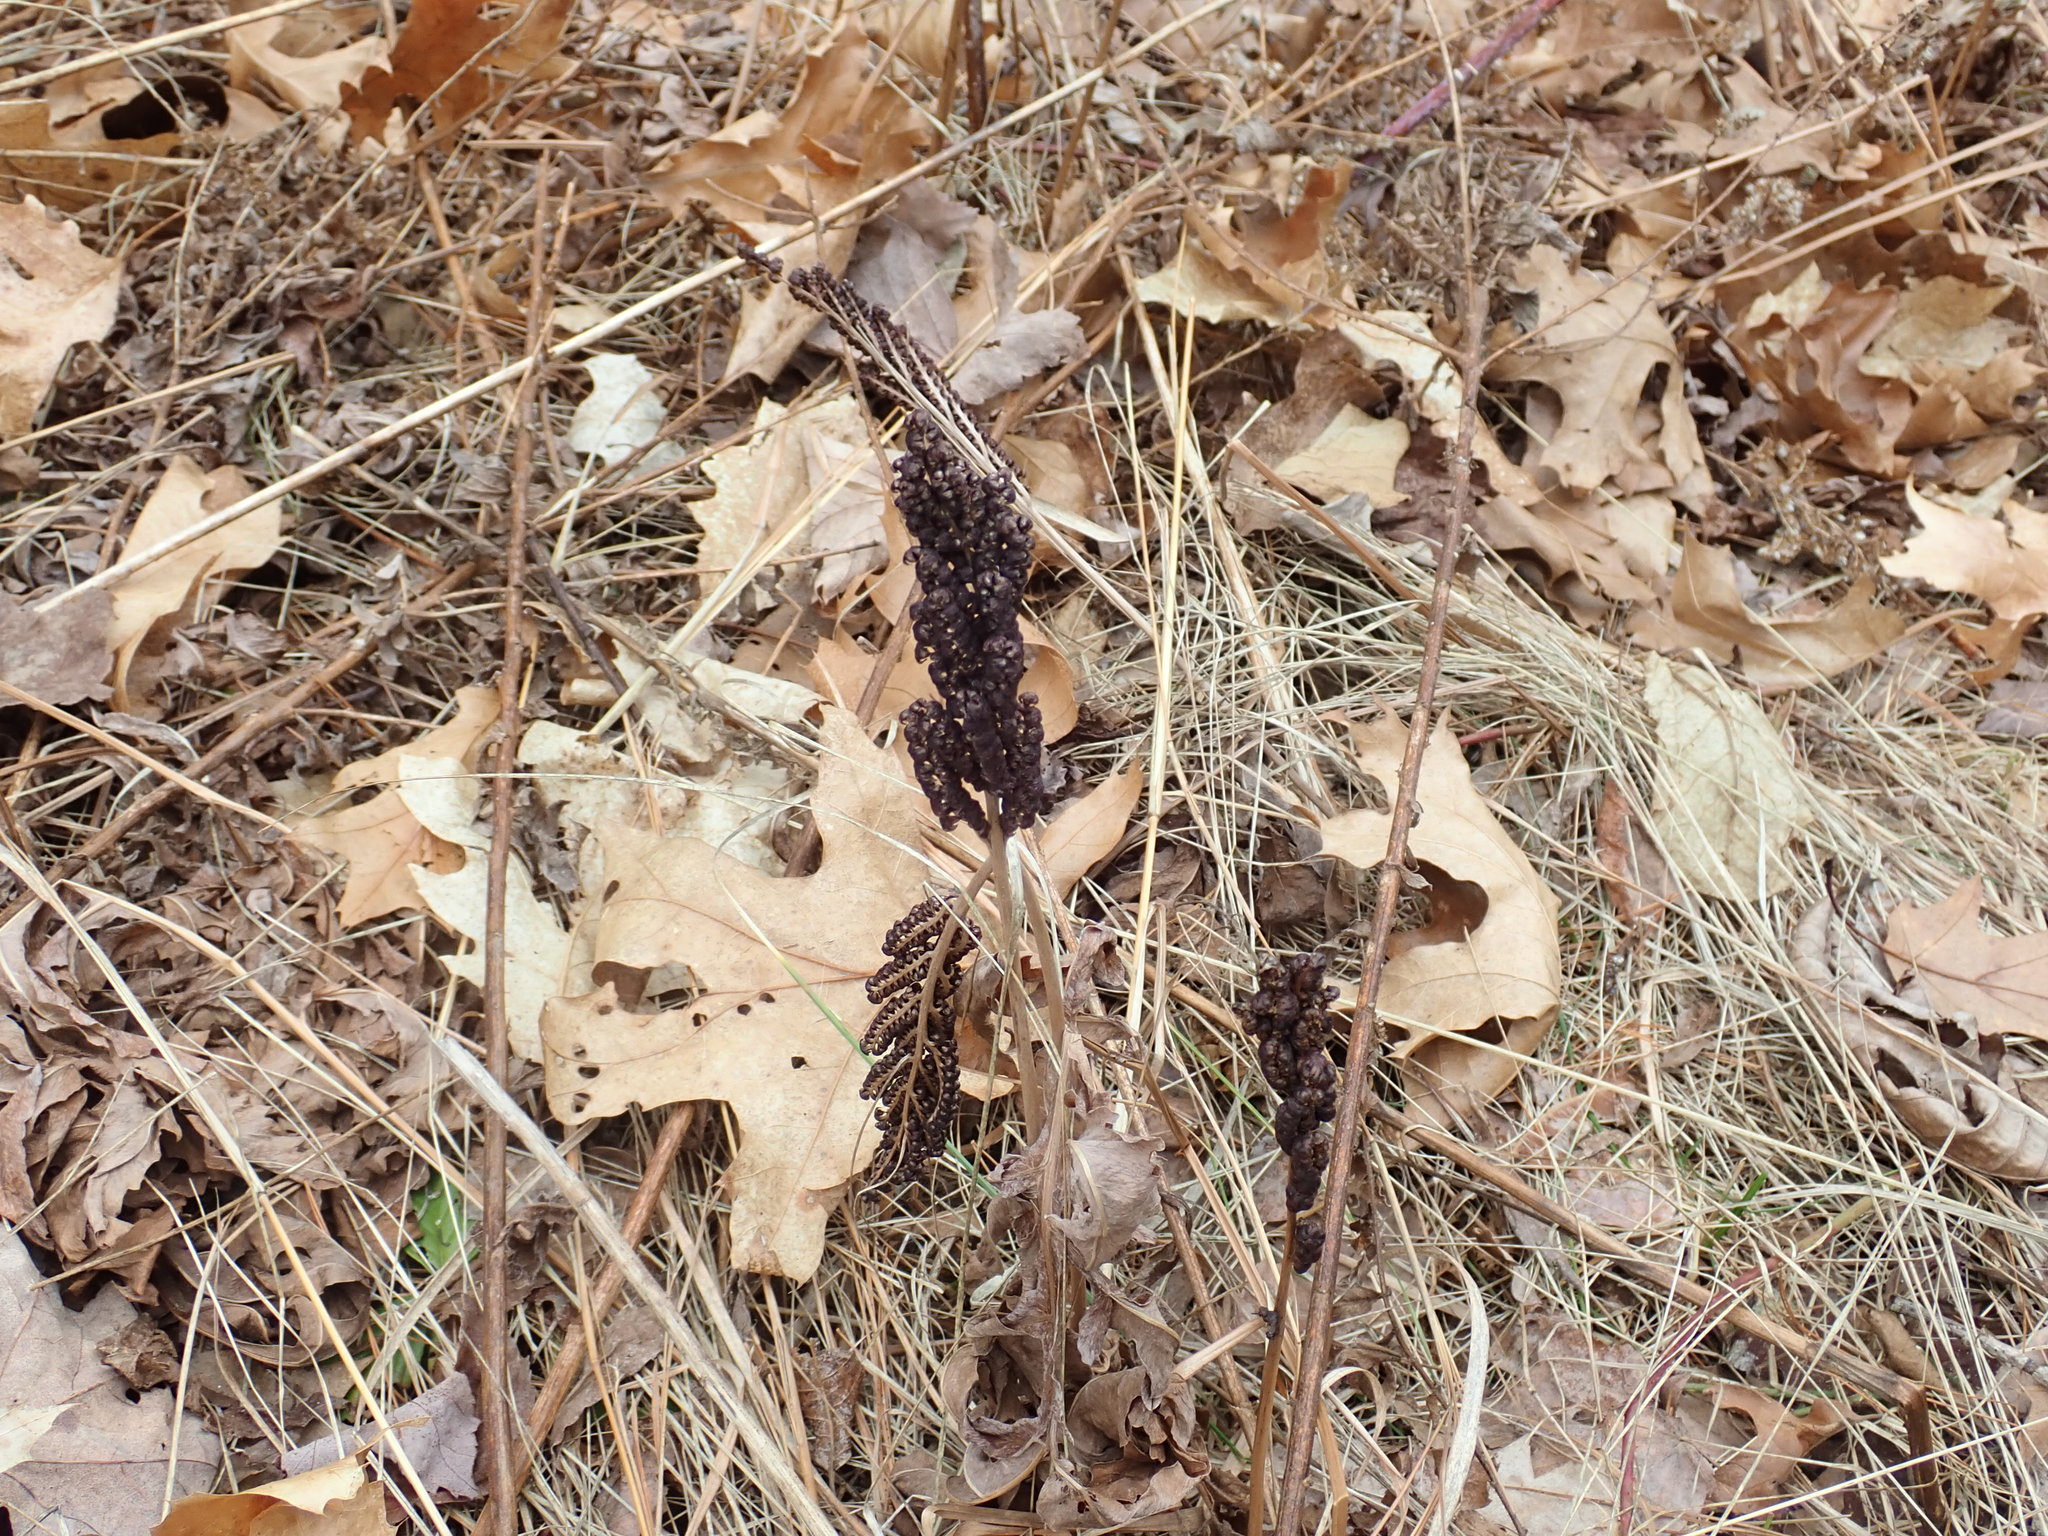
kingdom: Plantae
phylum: Tracheophyta
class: Polypodiopsida
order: Polypodiales
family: Onocleaceae
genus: Onoclea
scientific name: Onoclea sensibilis
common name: Sensitive fern
